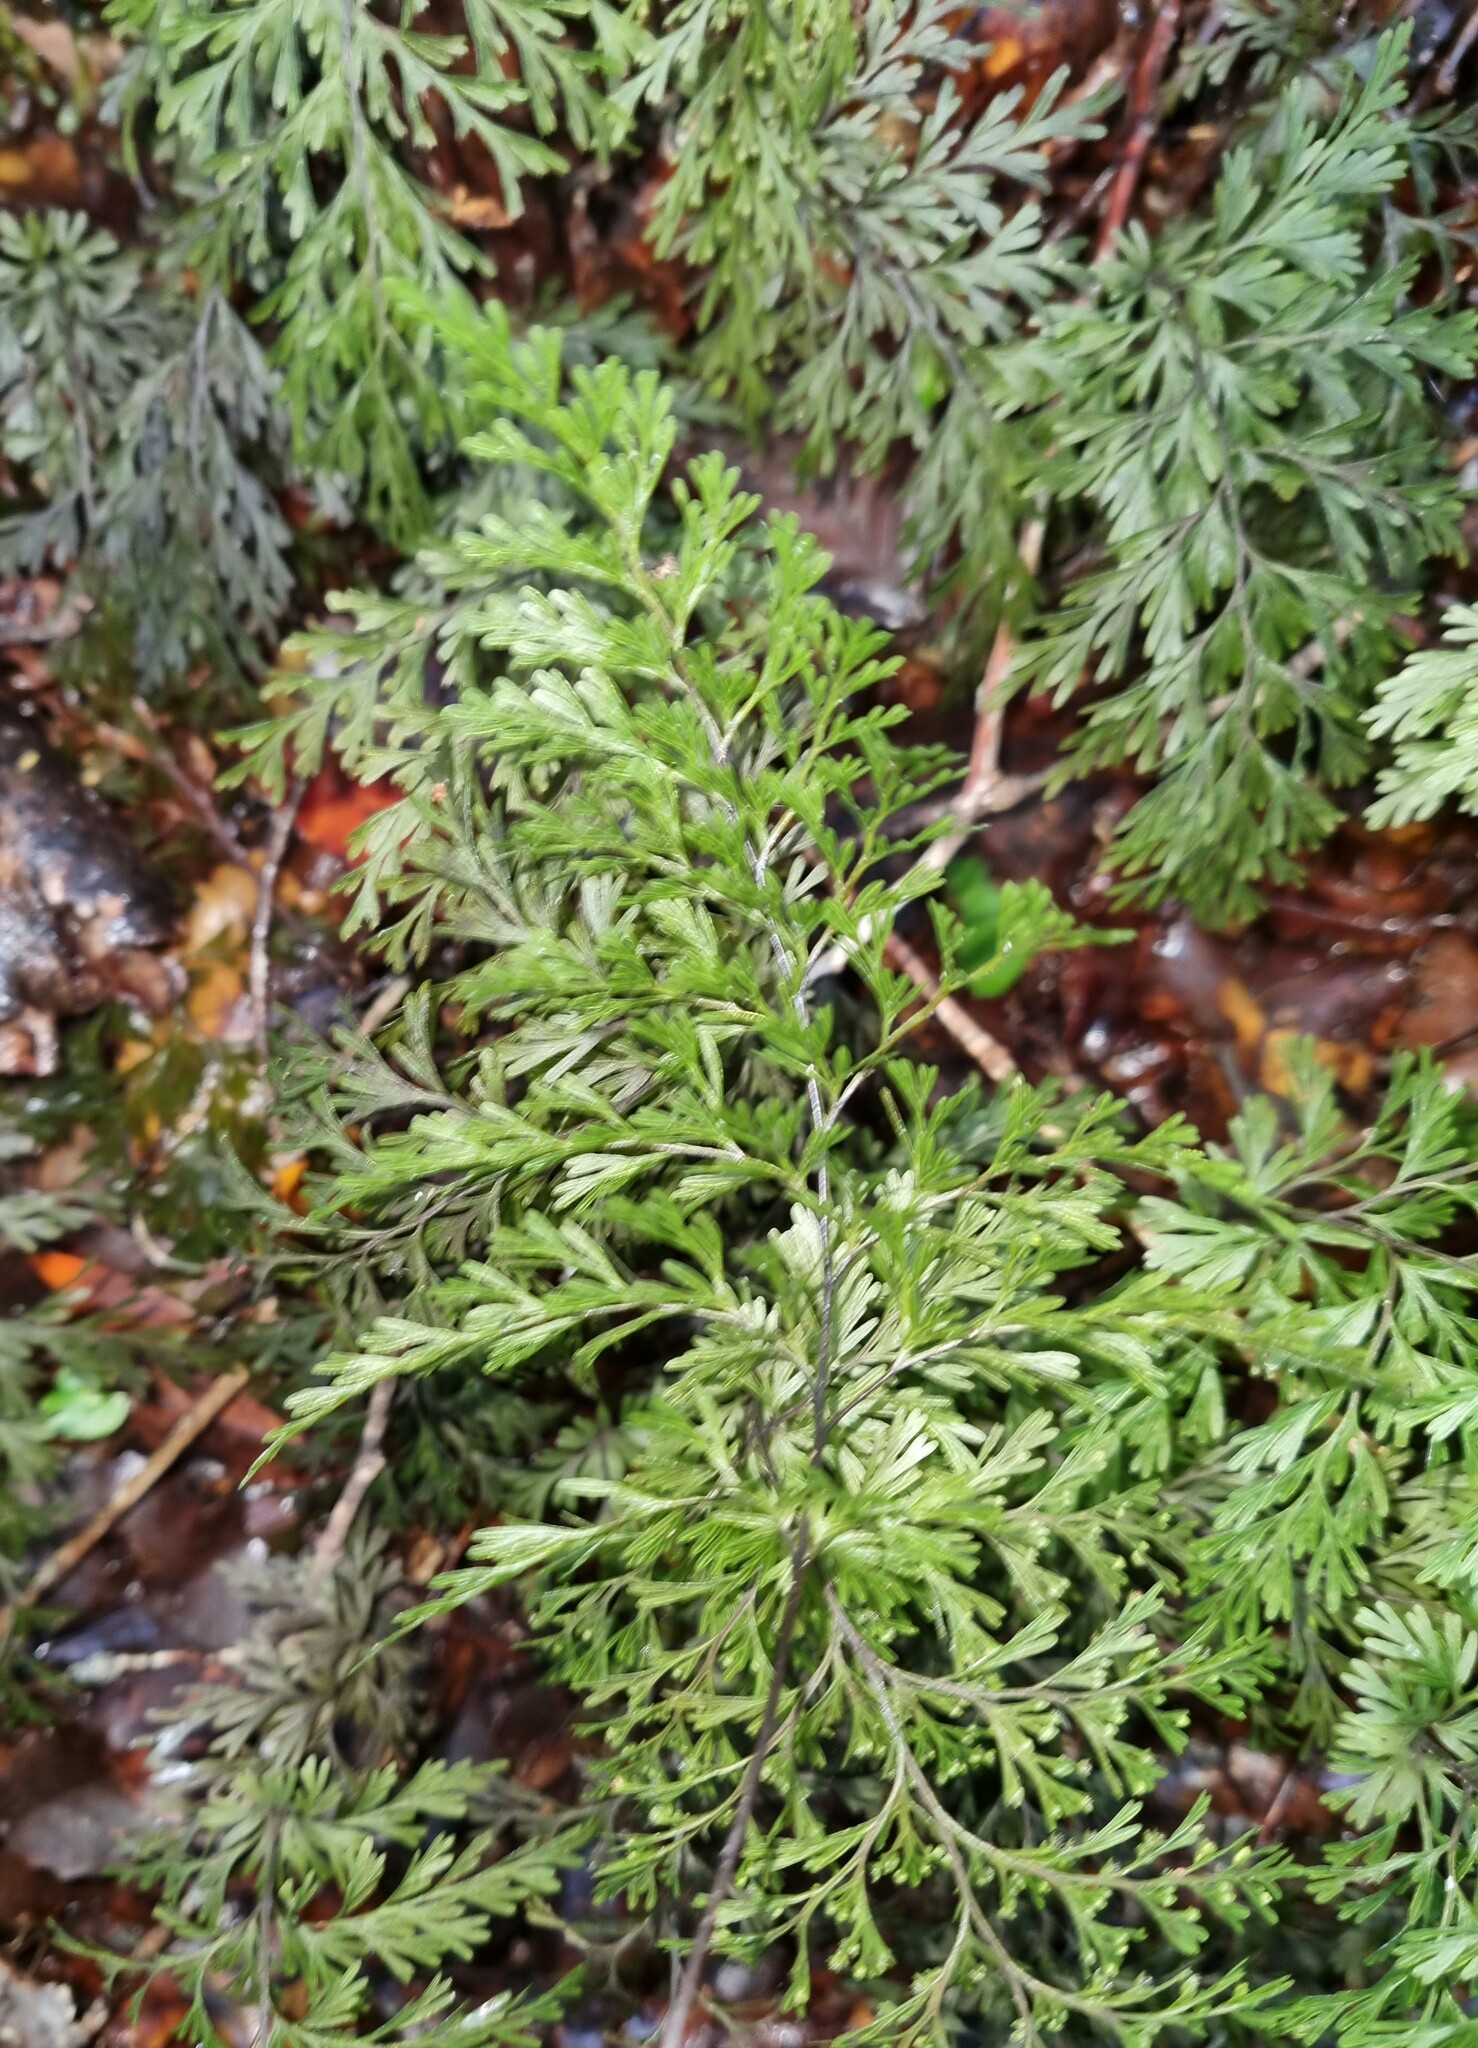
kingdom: Plantae
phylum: Tracheophyta
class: Polypodiopsida
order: Hymenophyllales
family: Hymenophyllaceae
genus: Hymenophyllum
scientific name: Hymenophyllum demissum
